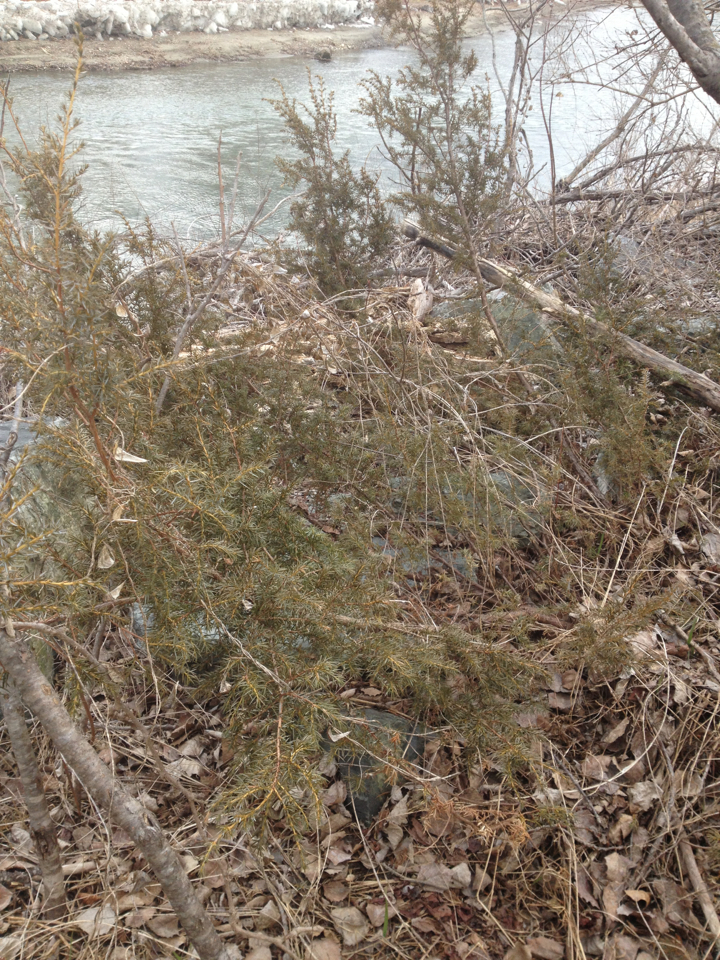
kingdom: Plantae
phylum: Tracheophyta
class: Pinopsida
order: Pinales
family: Cupressaceae
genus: Juniperus
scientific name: Juniperus communis
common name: Common juniper
